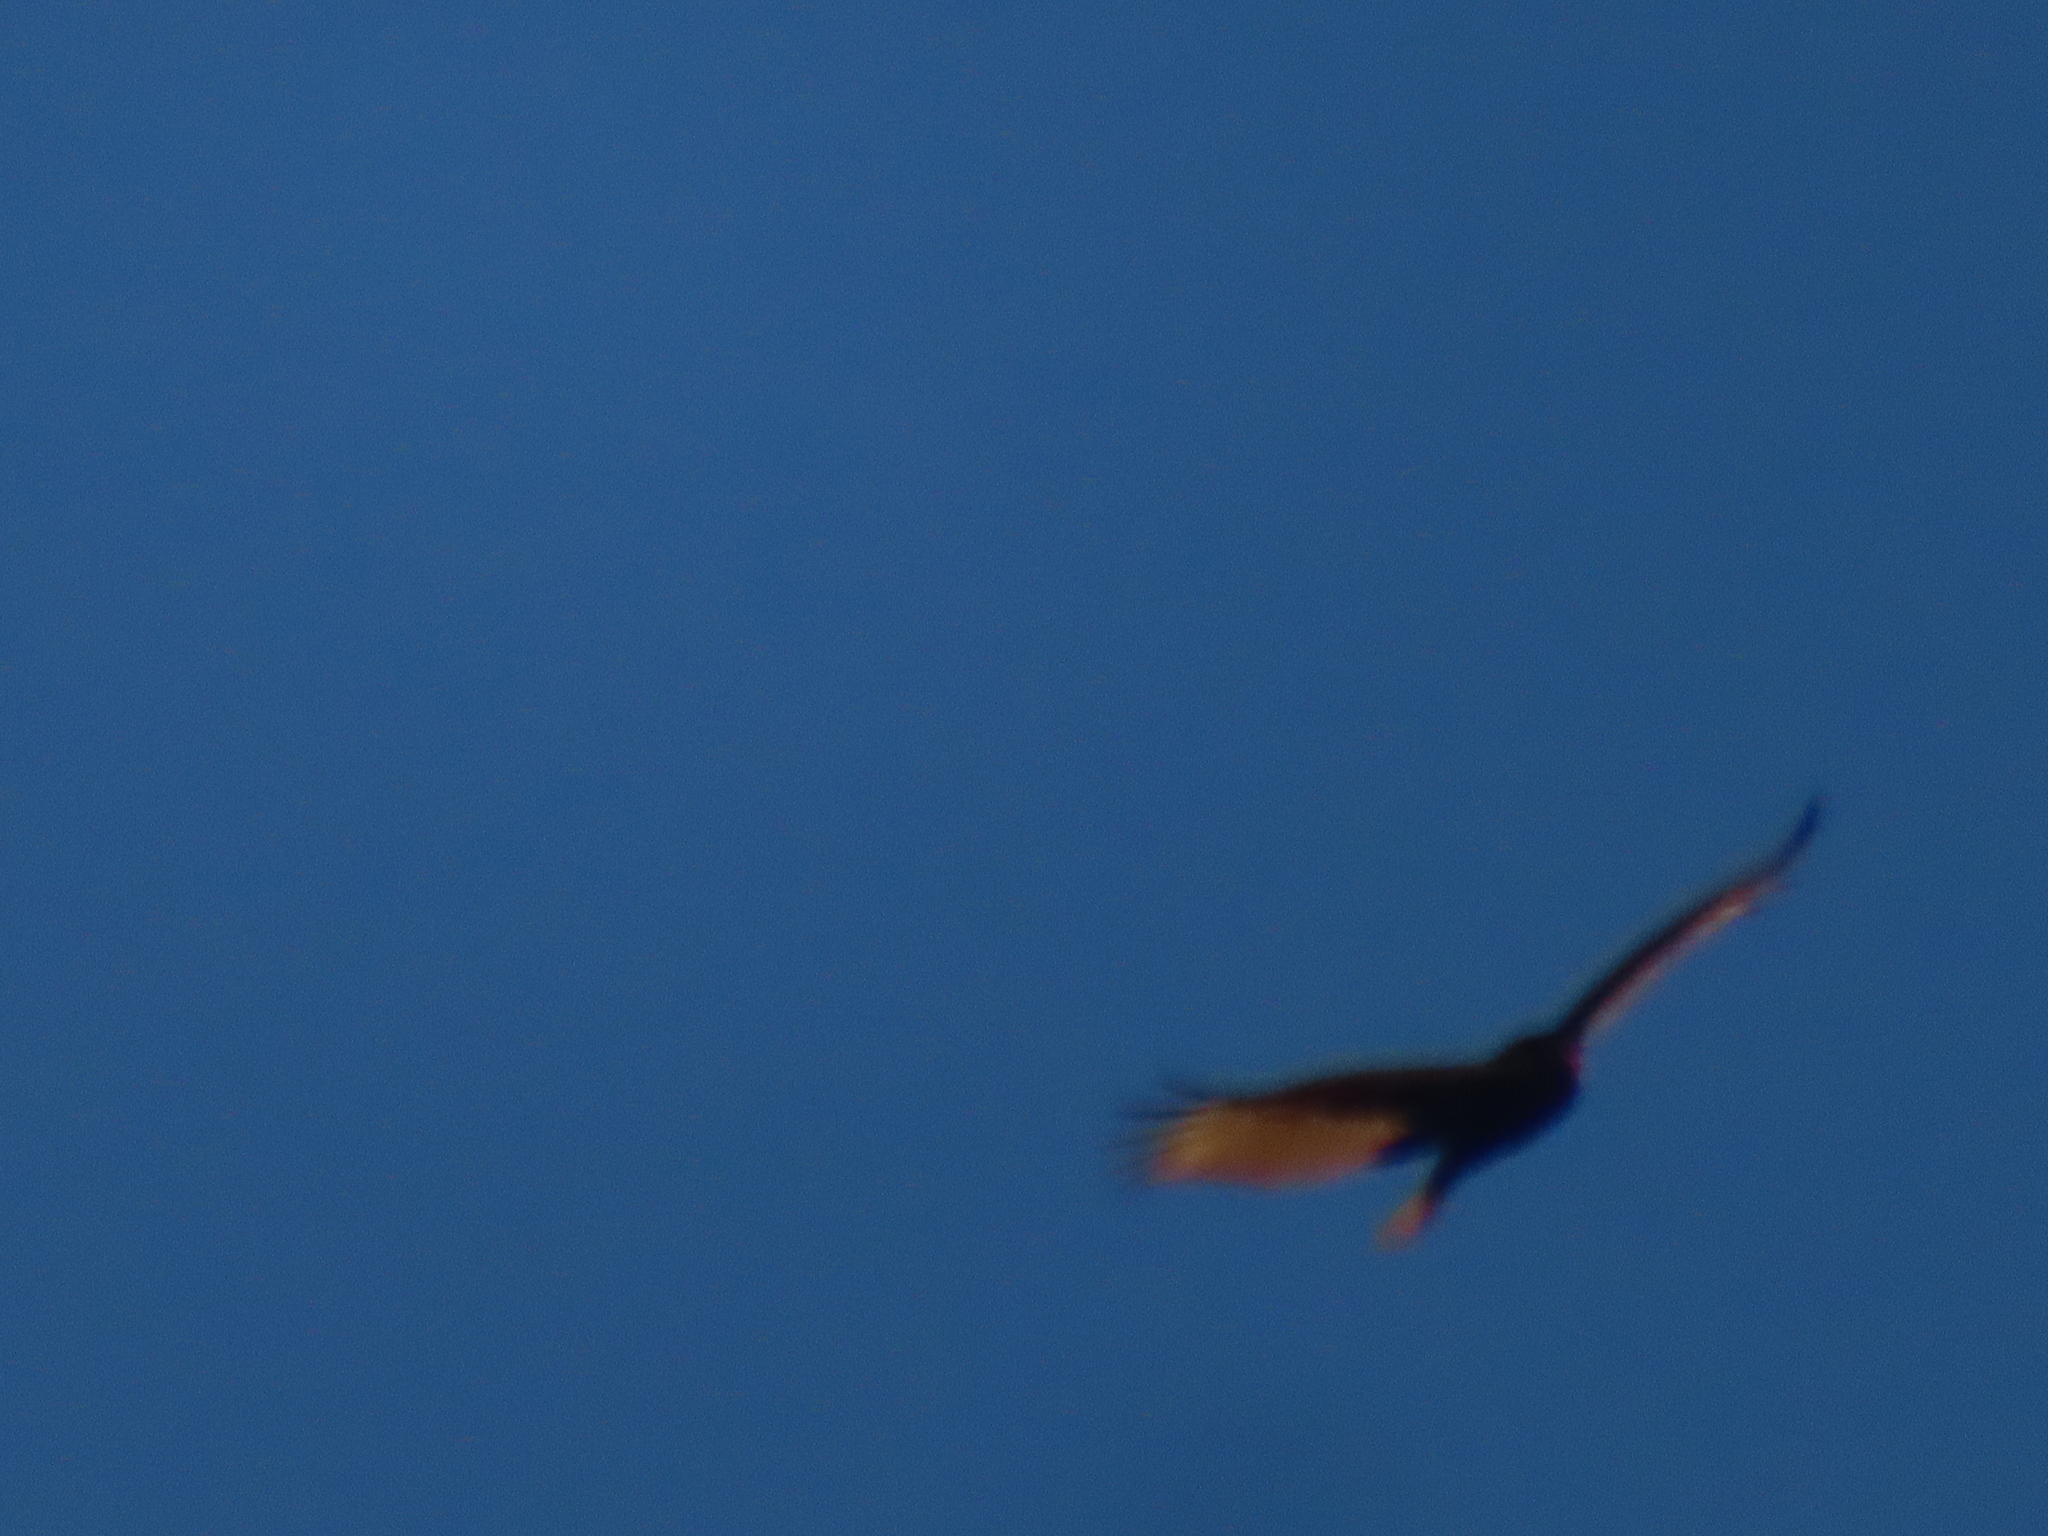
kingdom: Animalia
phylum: Chordata
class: Aves
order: Accipitriformes
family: Cathartidae
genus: Cathartes
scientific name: Cathartes aura
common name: Turkey vulture
